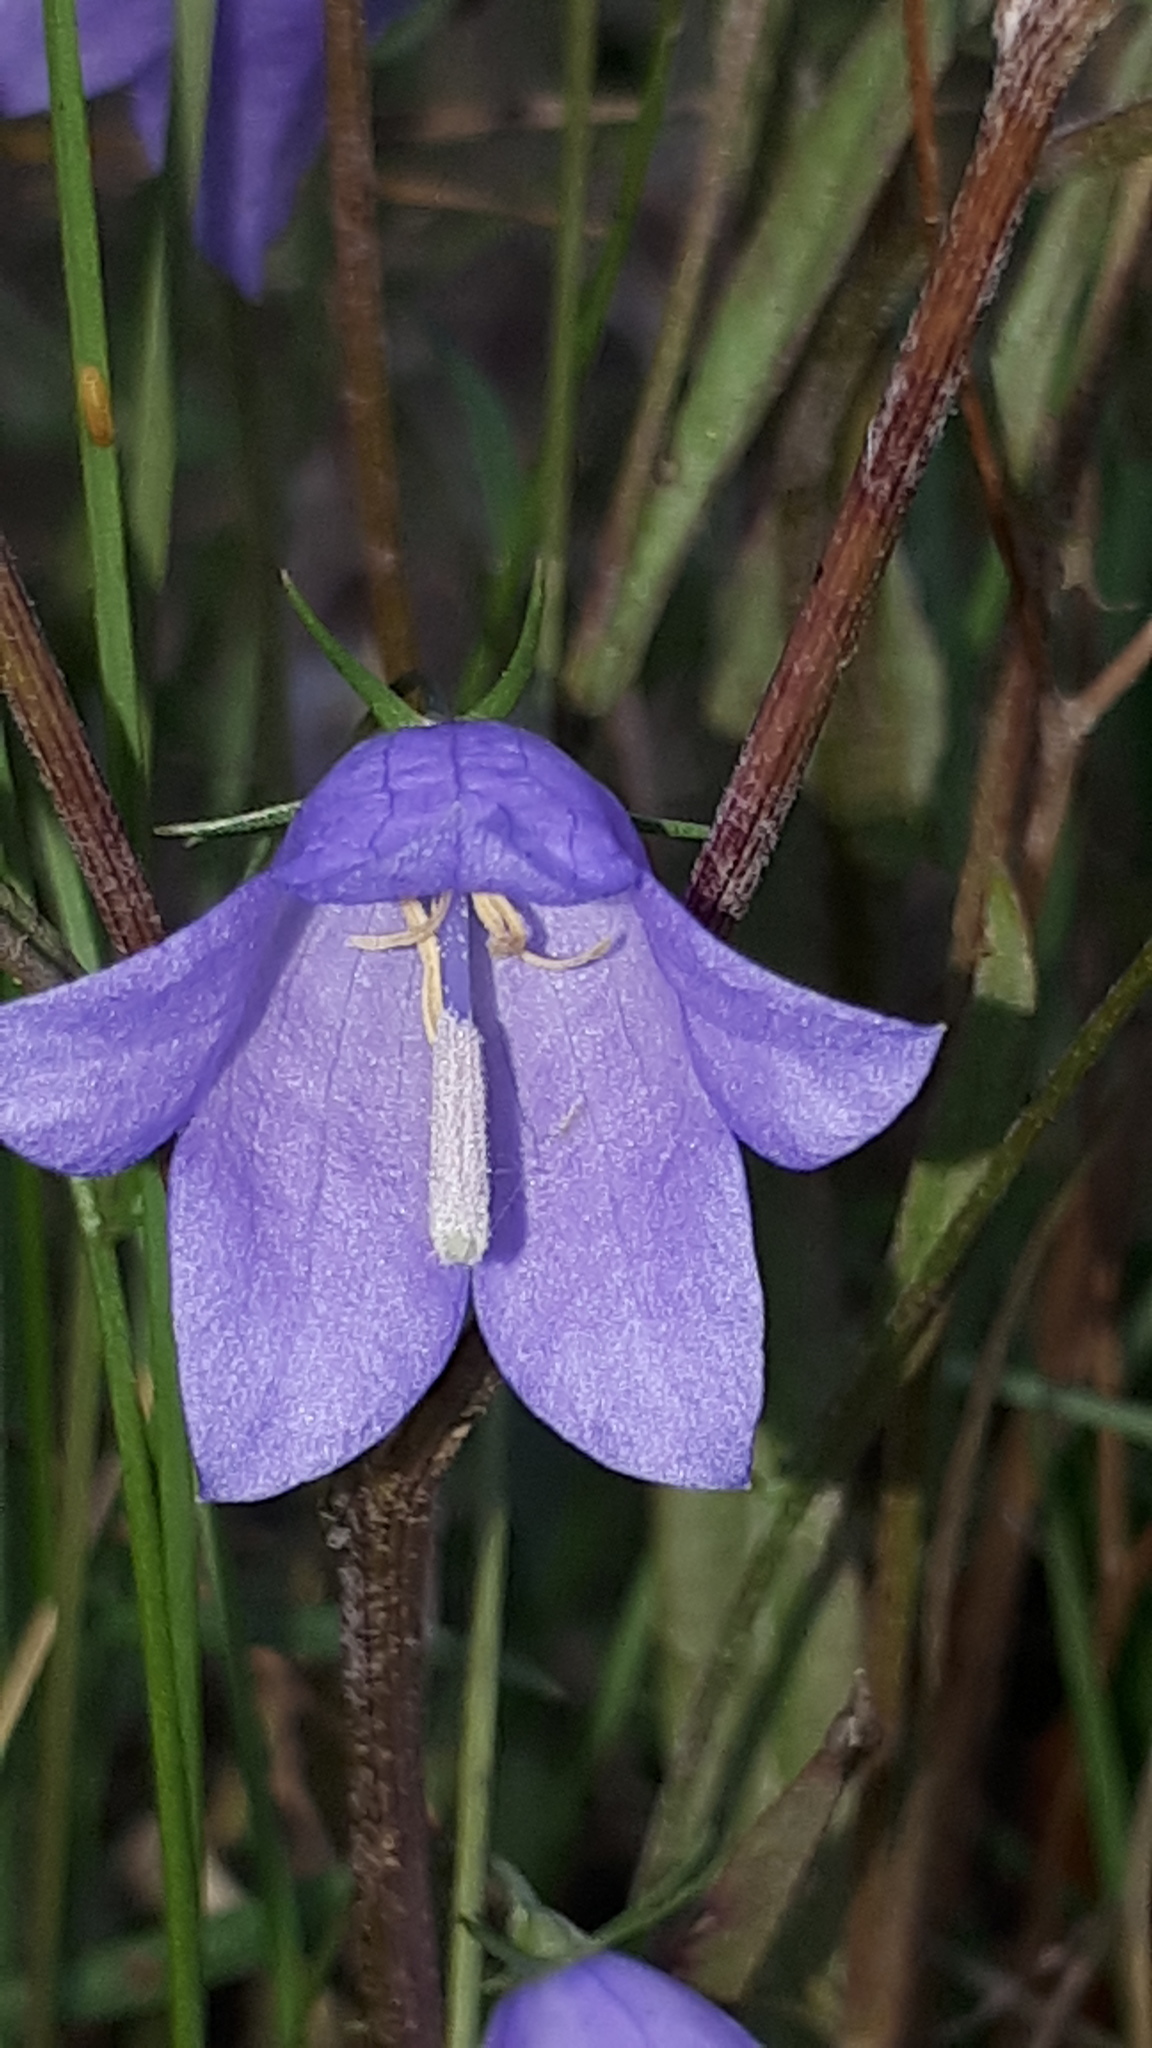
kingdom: Plantae
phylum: Tracheophyta
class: Magnoliopsida
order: Asterales
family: Campanulaceae
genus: Campanula
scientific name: Campanula rotundifolia
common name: Harebell
